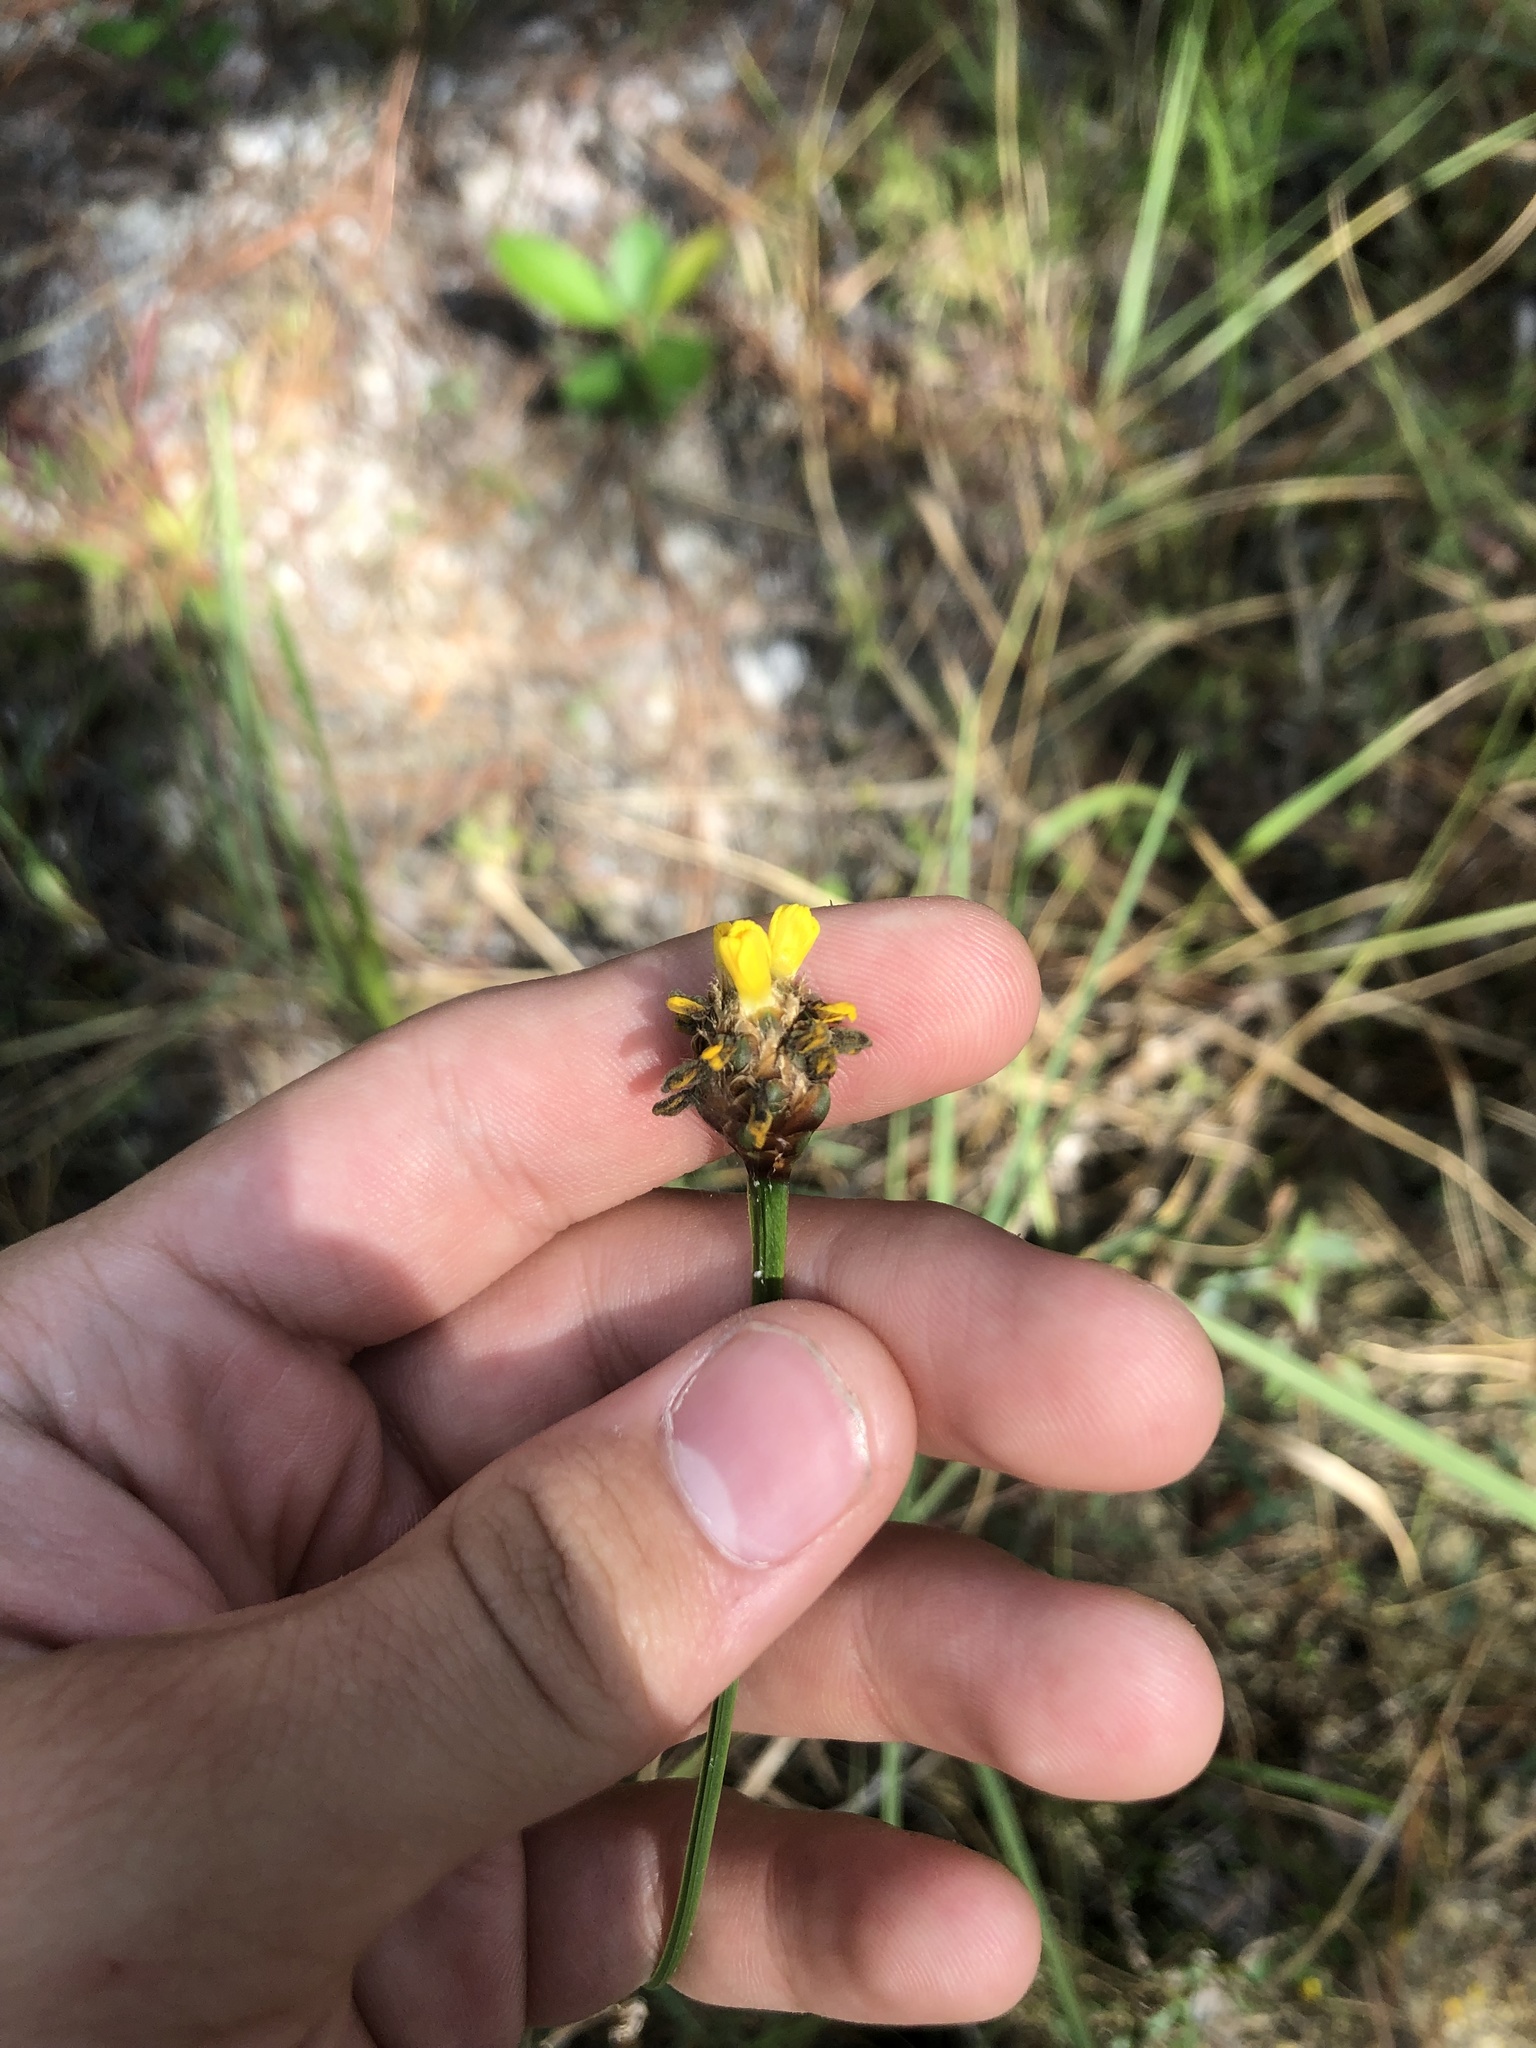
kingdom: Plantae
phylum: Tracheophyta
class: Liliopsida
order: Poales
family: Xyridaceae
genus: Xyris
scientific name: Xyris fimbriata
